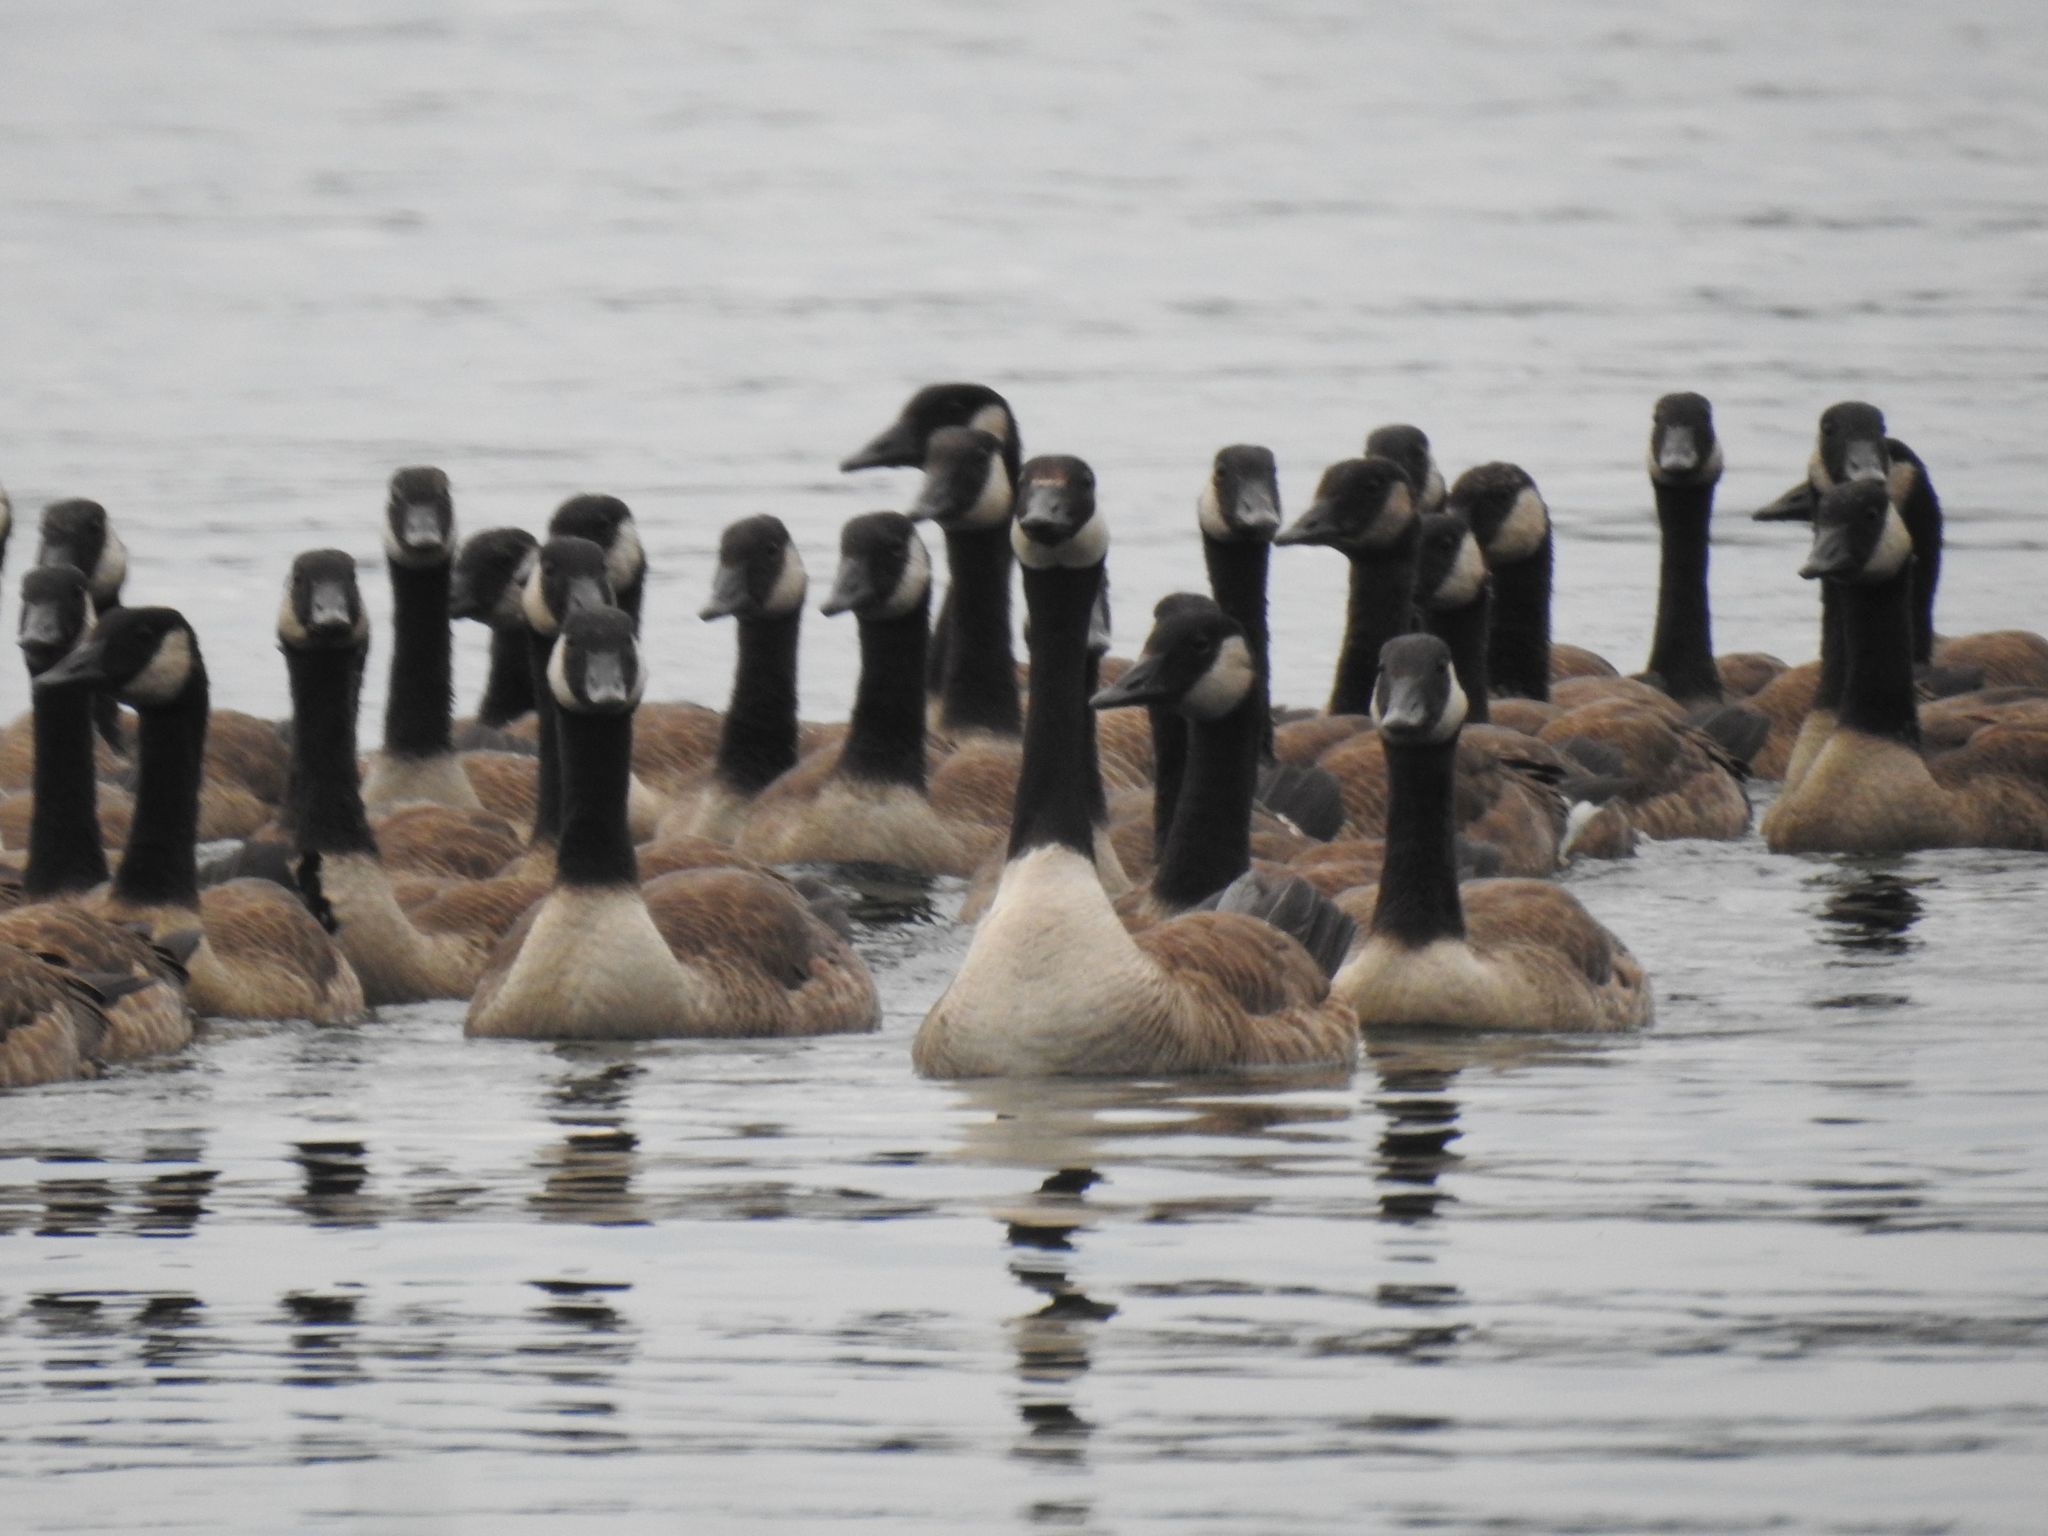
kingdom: Animalia
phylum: Chordata
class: Aves
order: Anseriformes
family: Anatidae
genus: Branta
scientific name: Branta canadensis
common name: Canada goose
